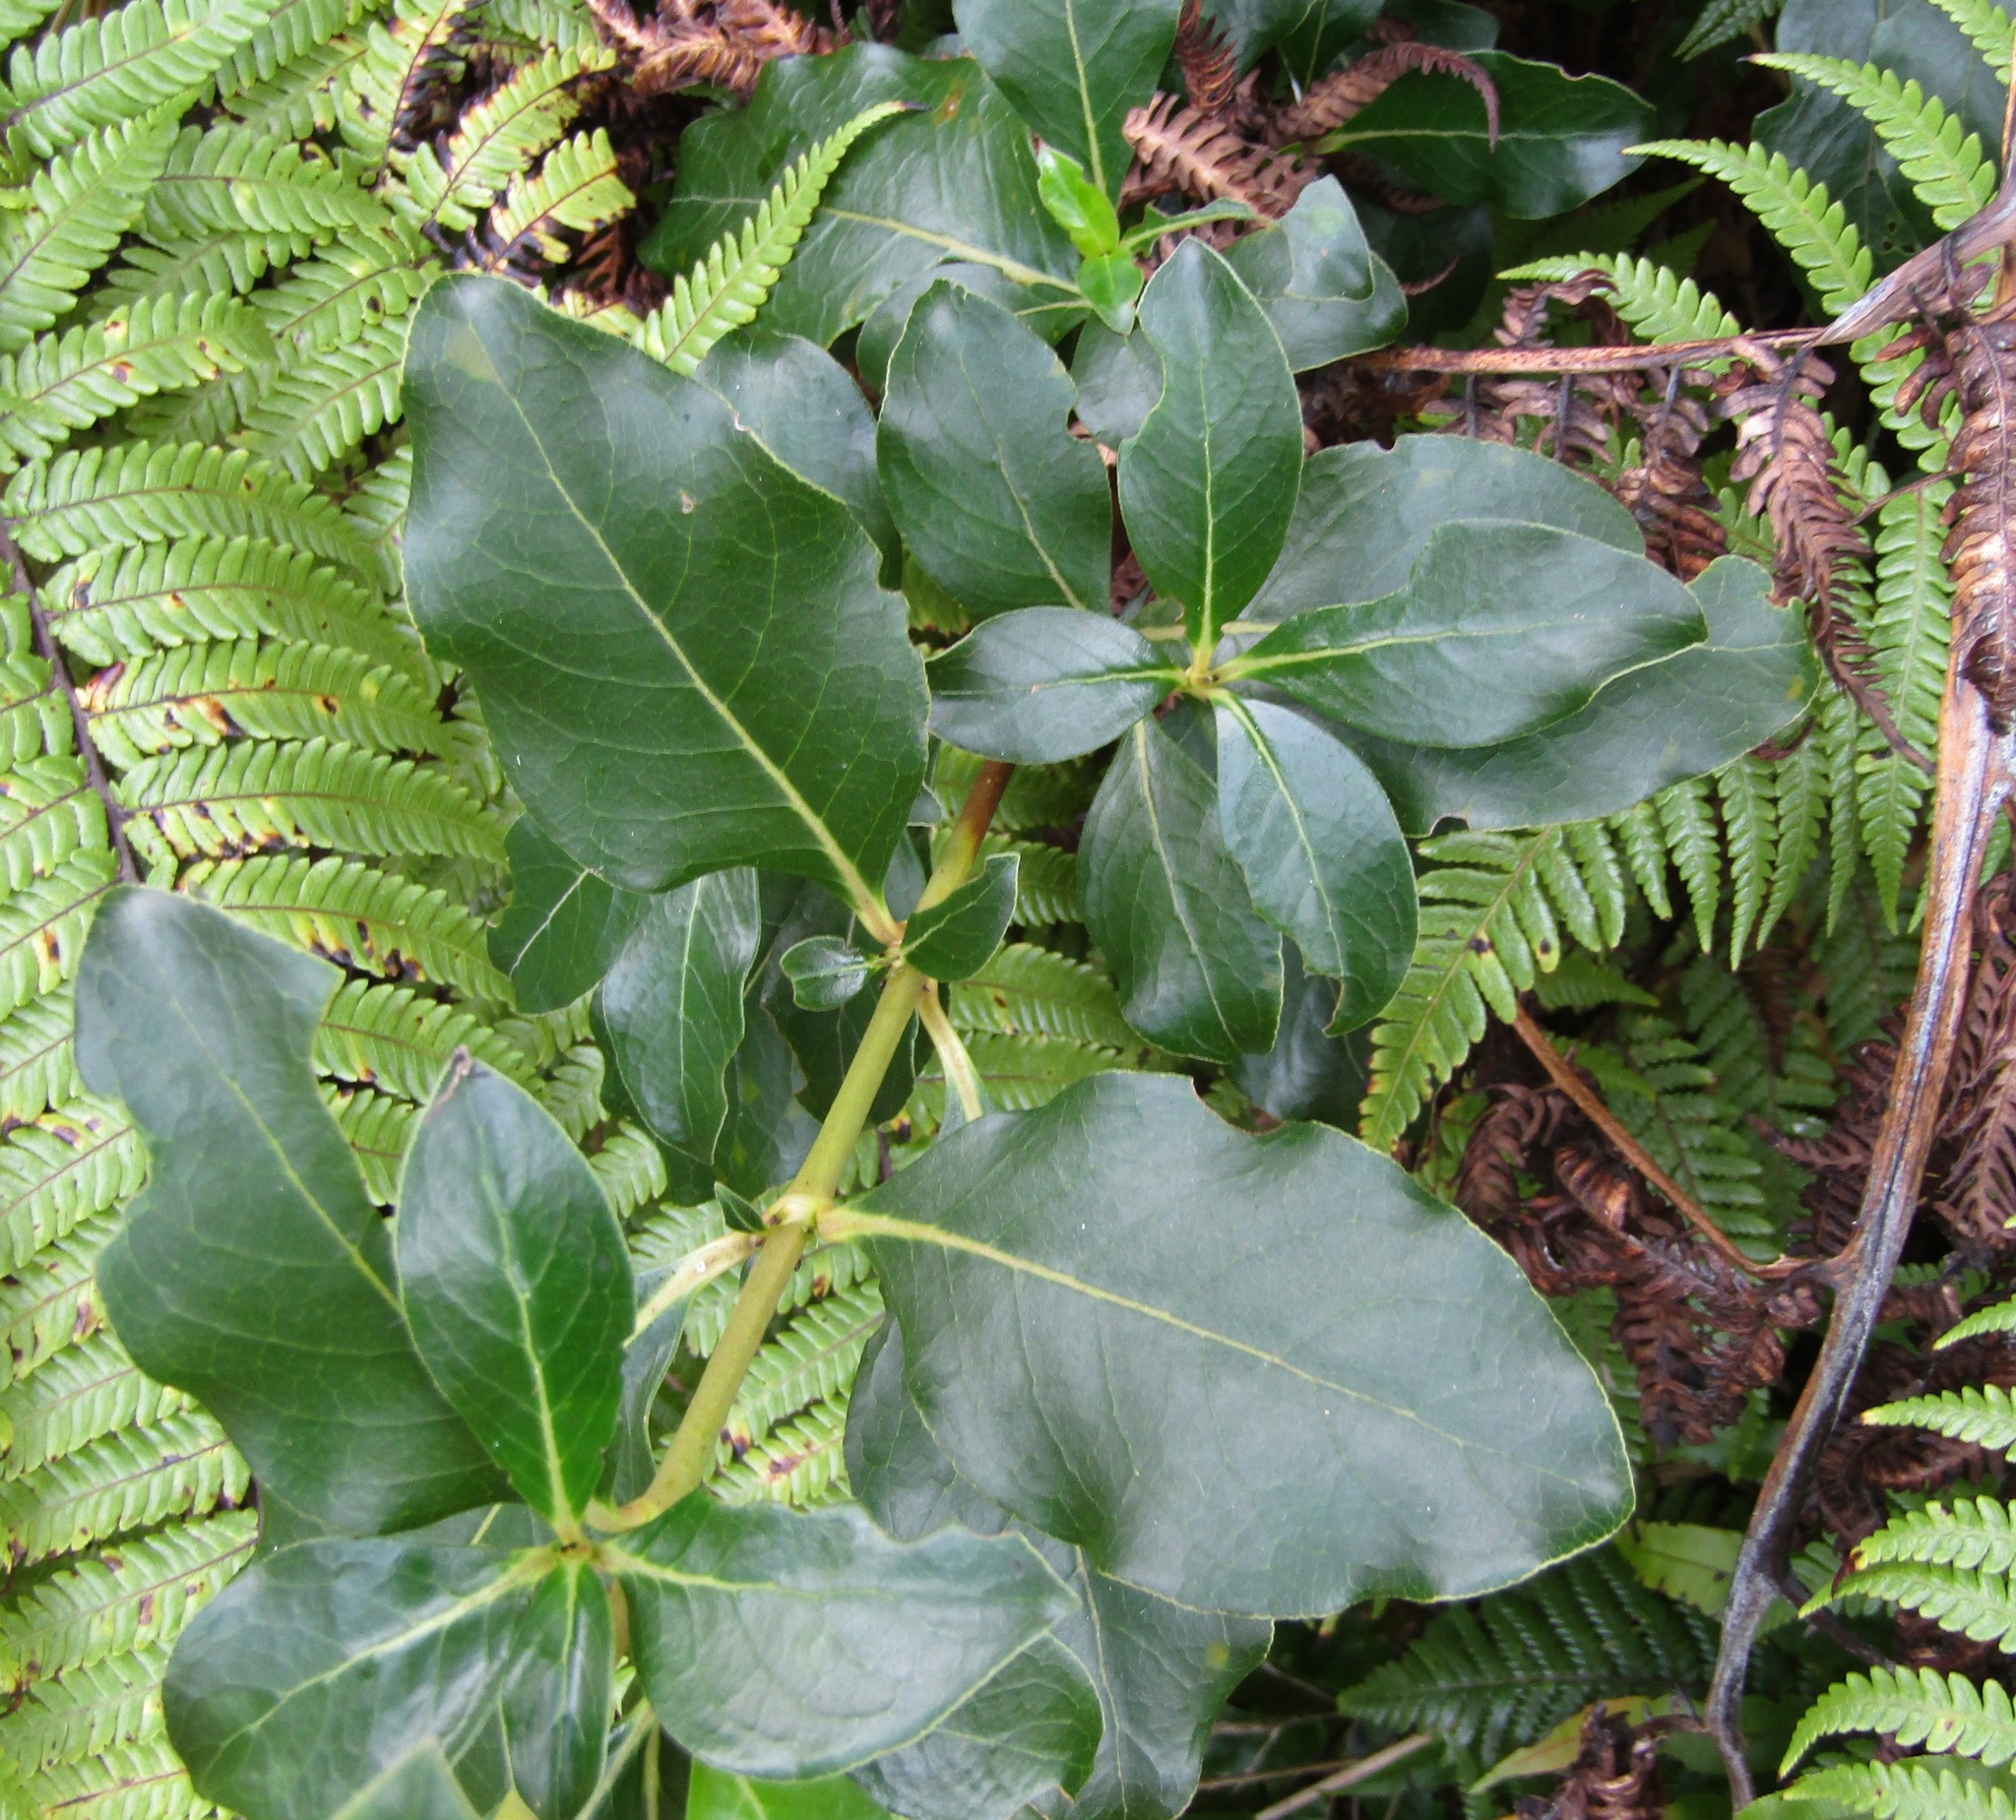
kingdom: Plantae
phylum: Tracheophyta
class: Magnoliopsida
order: Gentianales
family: Rubiaceae
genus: Coprosma
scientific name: Coprosma robusta
